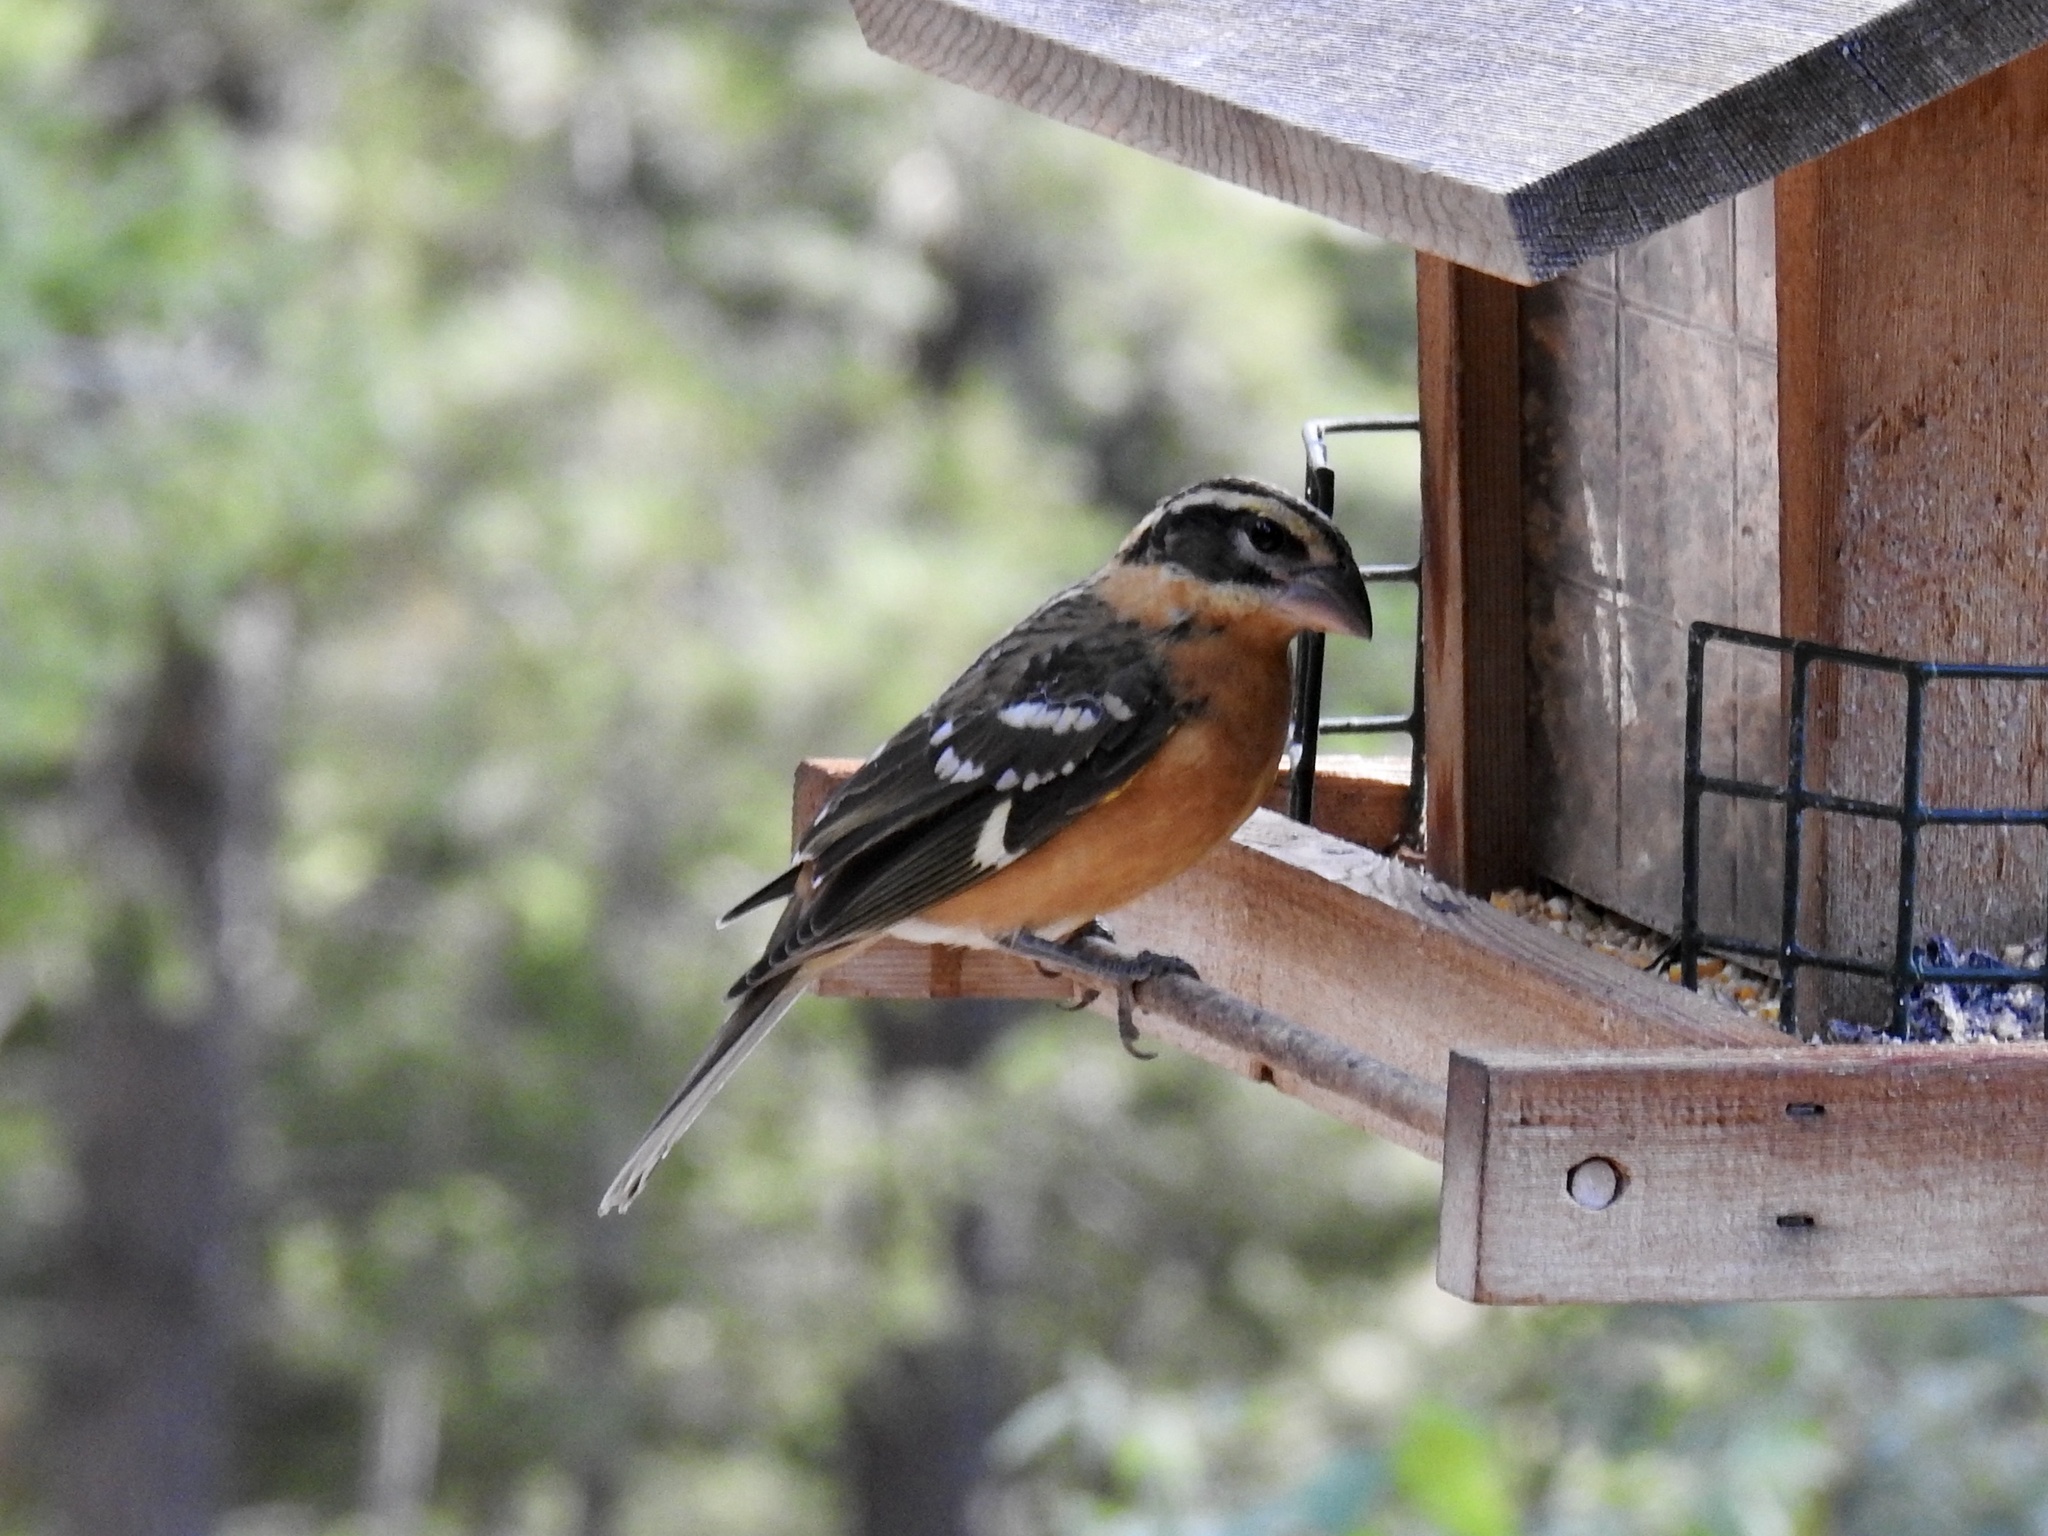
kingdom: Animalia
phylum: Chordata
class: Aves
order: Passeriformes
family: Cardinalidae
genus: Pheucticus
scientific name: Pheucticus melanocephalus
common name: Black-headed grosbeak
